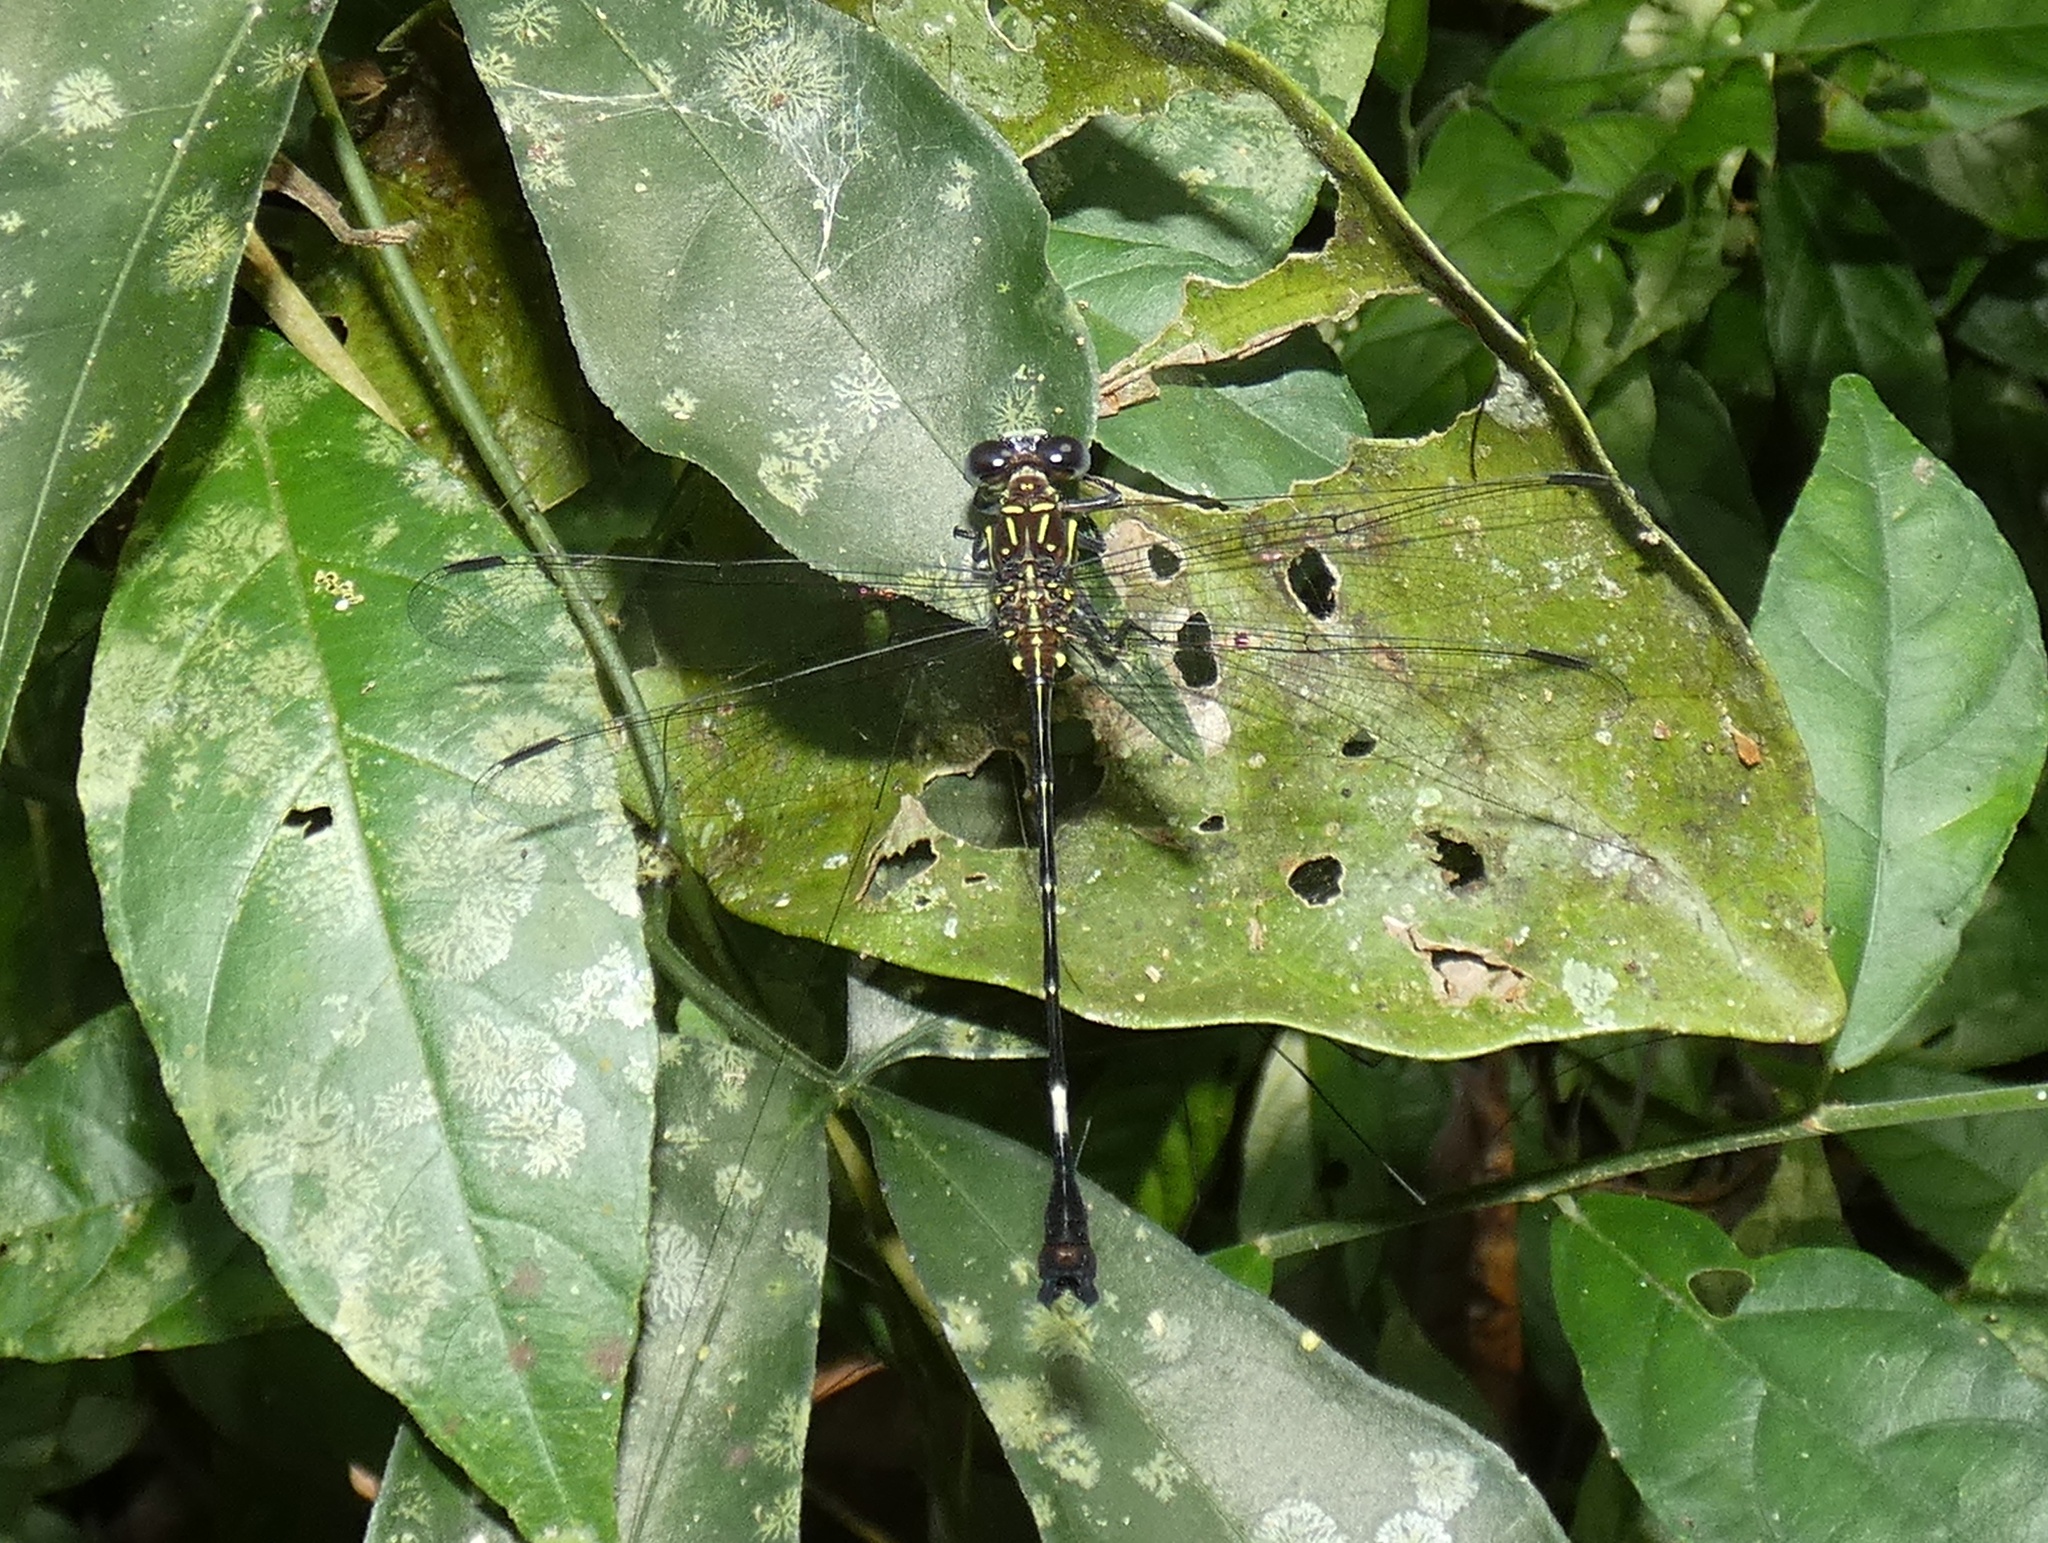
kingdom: Animalia
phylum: Arthropoda
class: Insecta
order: Odonata
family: Gomphidae
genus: Epigomphus
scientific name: Epigomphus quadracies
